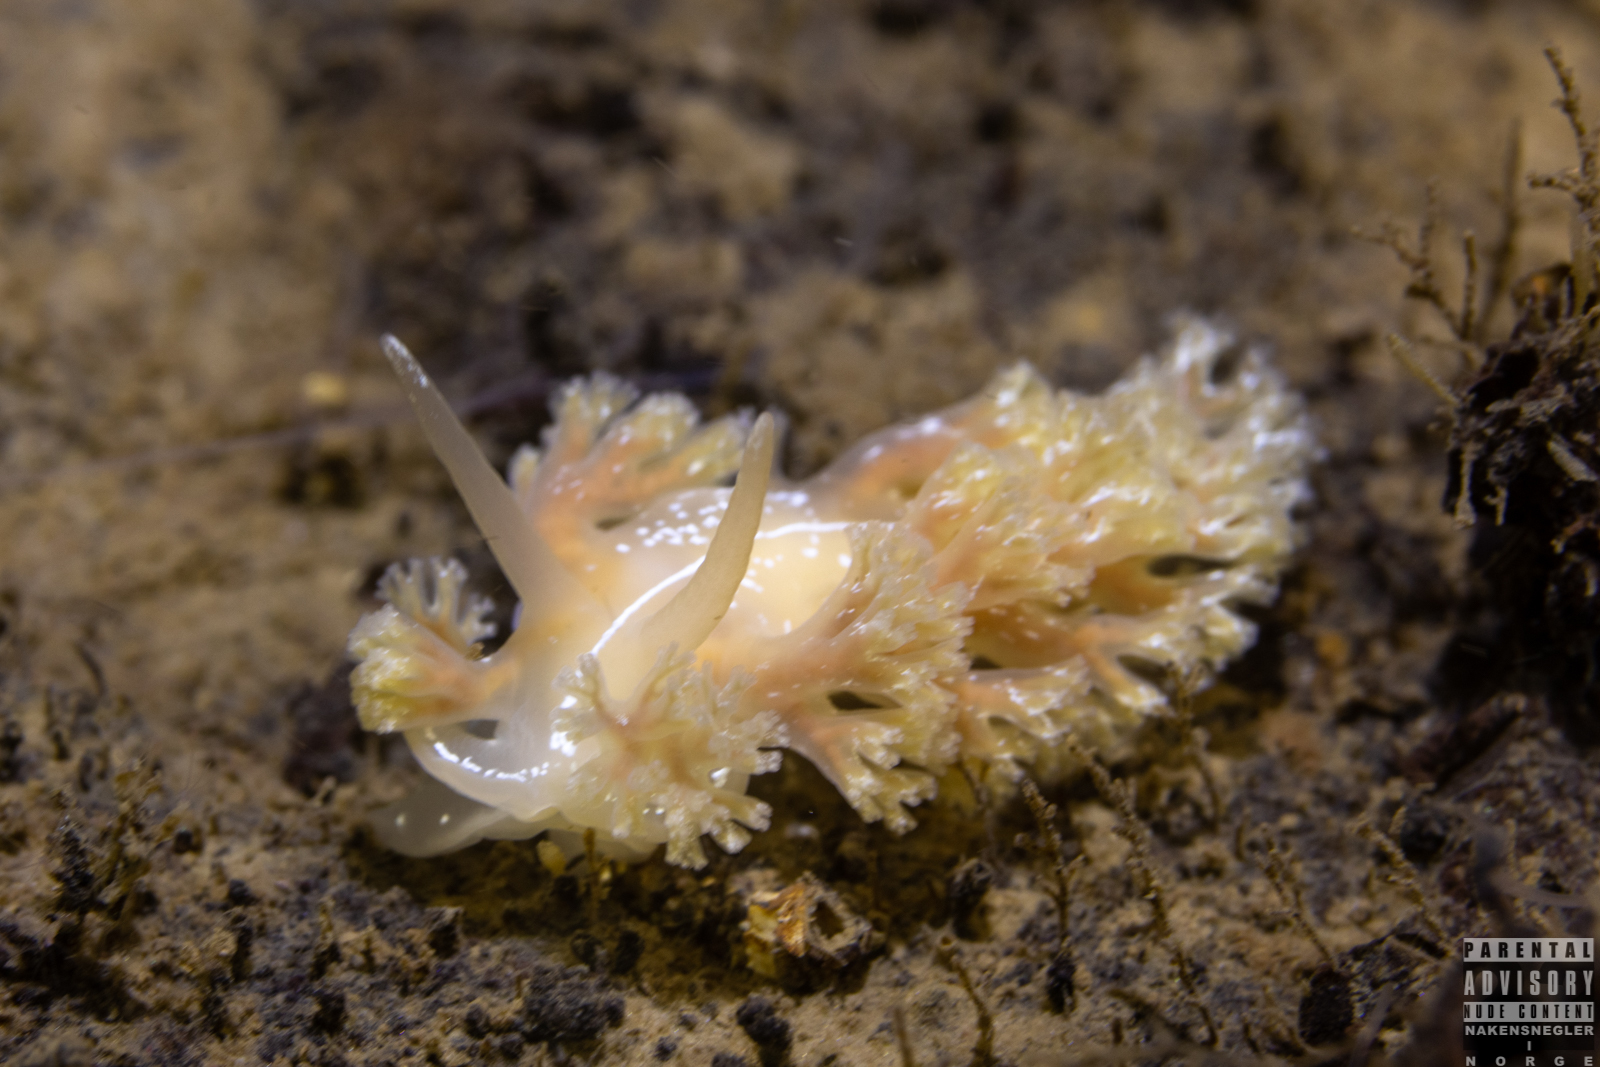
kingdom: Animalia
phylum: Mollusca
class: Gastropoda
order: Nudibranchia
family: Heroidae
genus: Hero
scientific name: Hero formosa
